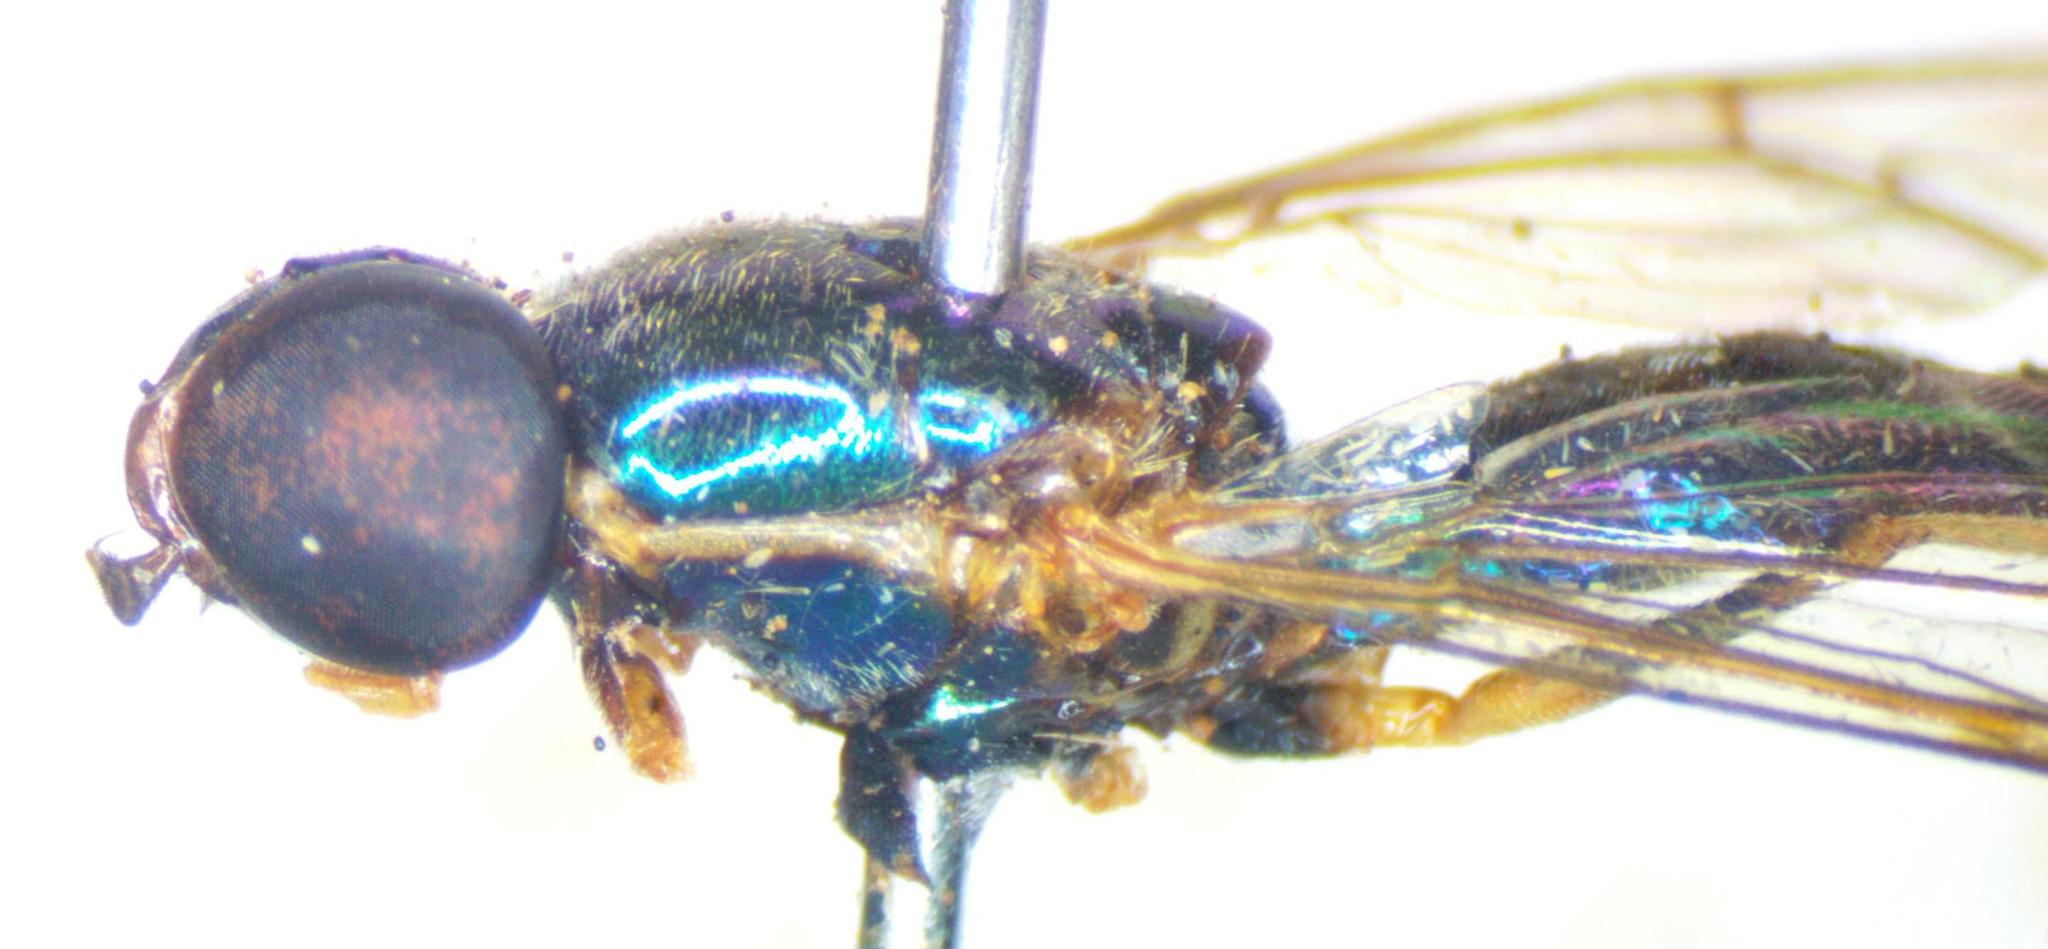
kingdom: Animalia
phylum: Arthropoda
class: Insecta
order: Diptera
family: Stratiomyidae
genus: Sargus
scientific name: Sargus speciosus
